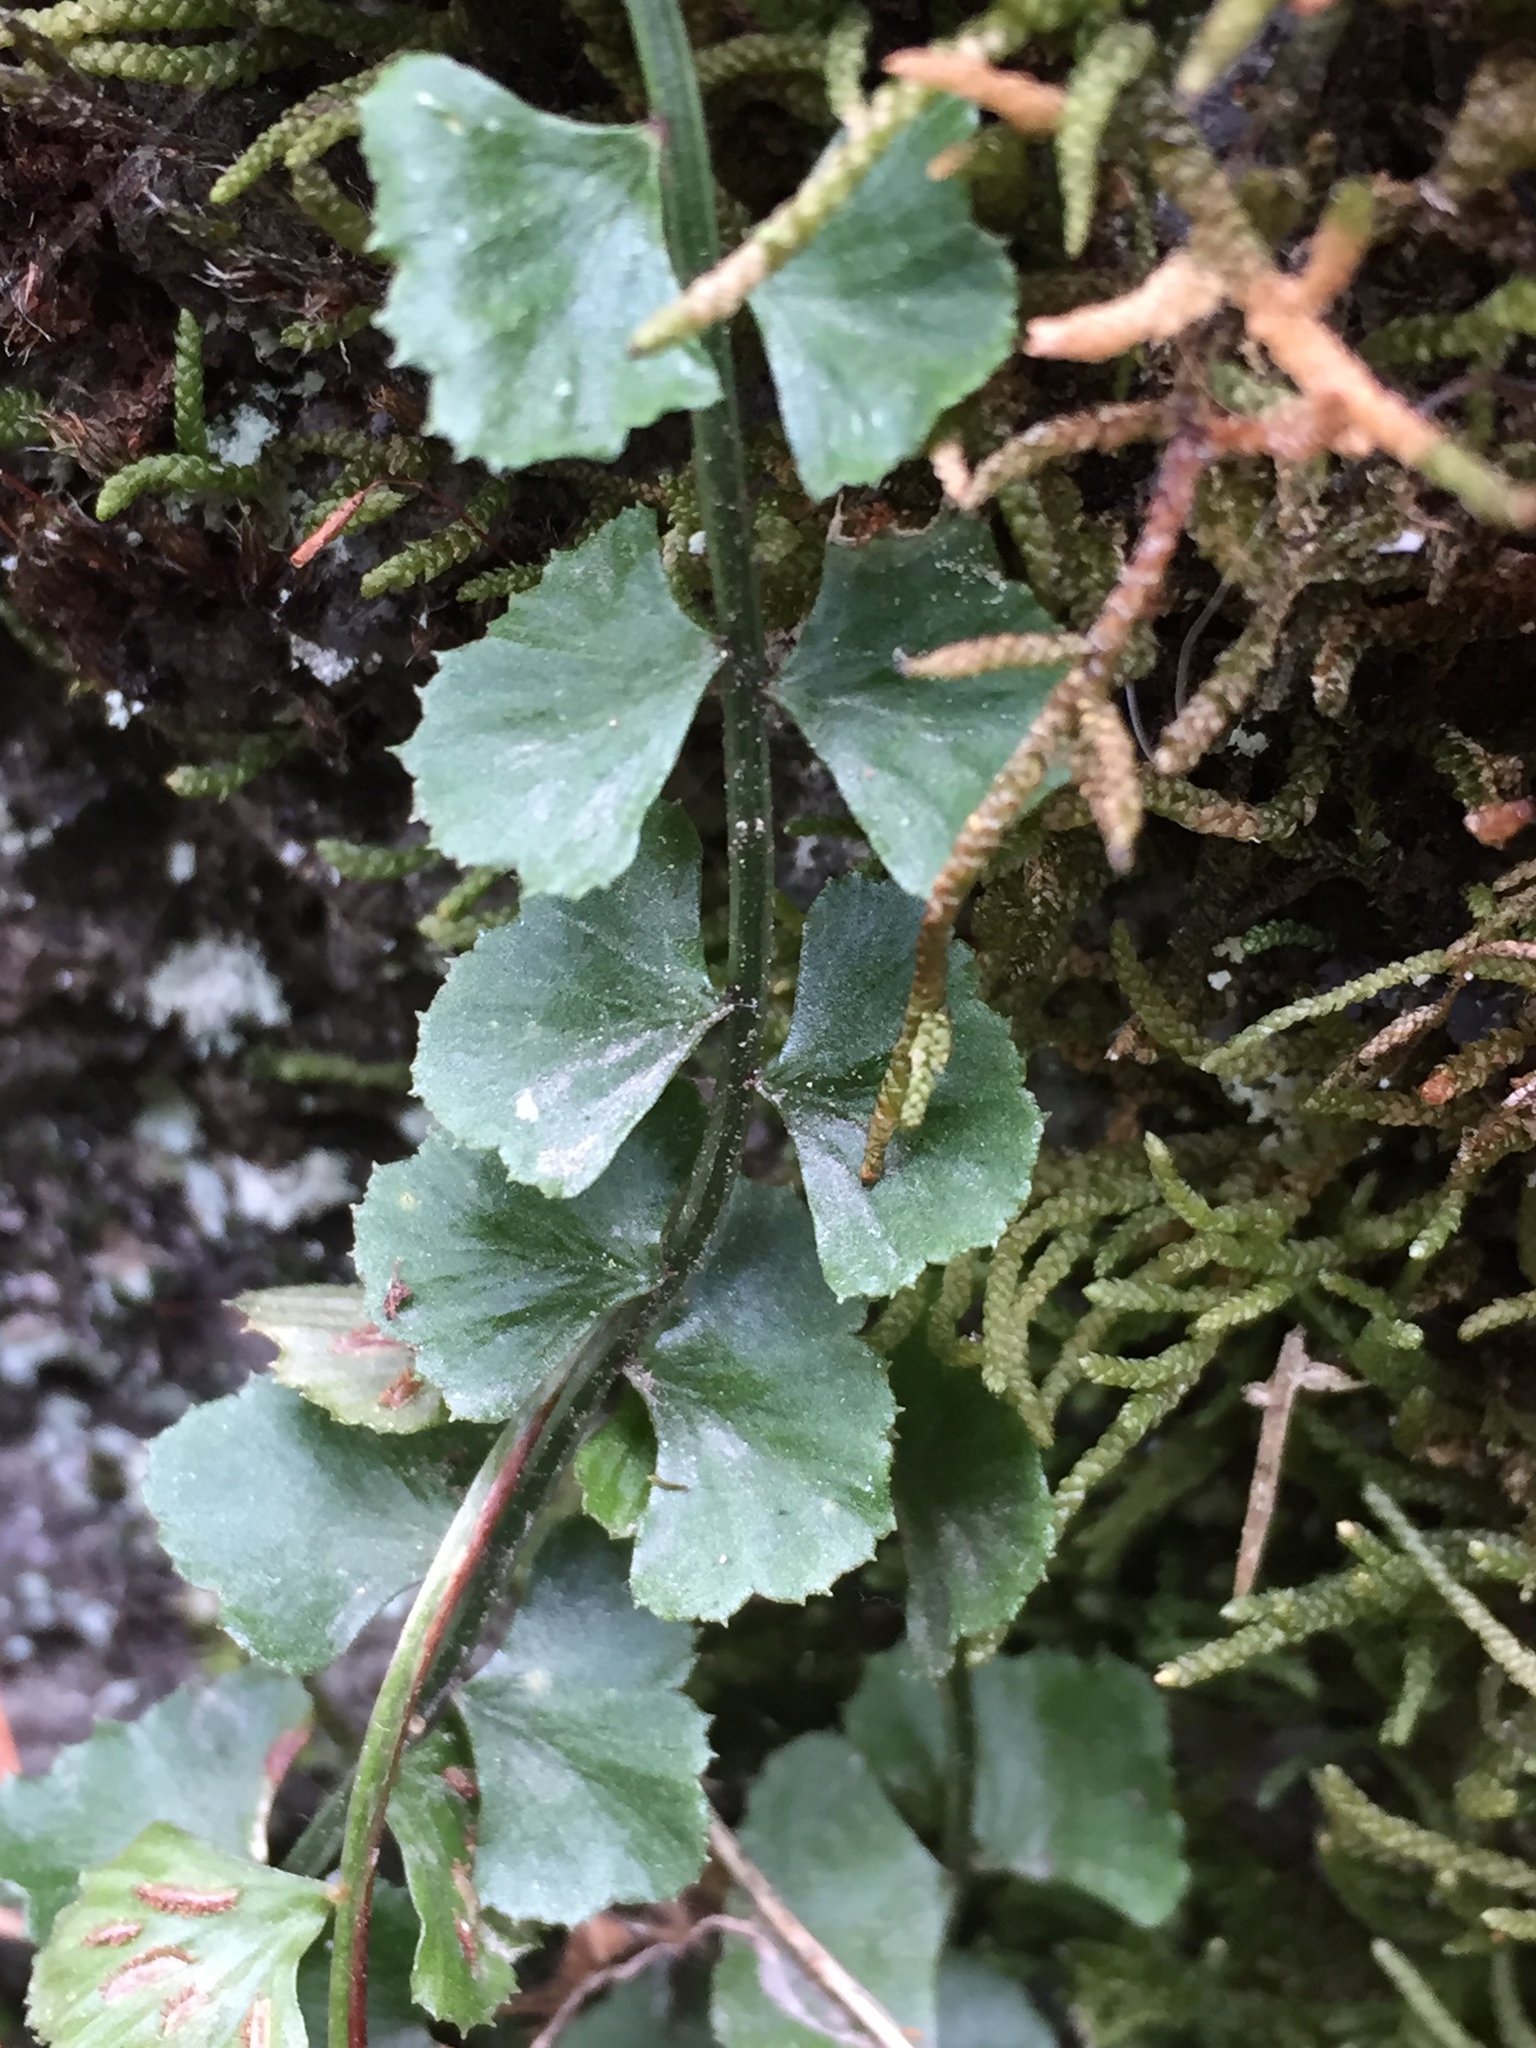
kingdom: Plantae
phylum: Tracheophyta
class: Polypodiopsida
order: Polypodiales
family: Aspleniaceae
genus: Asplenium
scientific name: Asplenium flabellifolium
